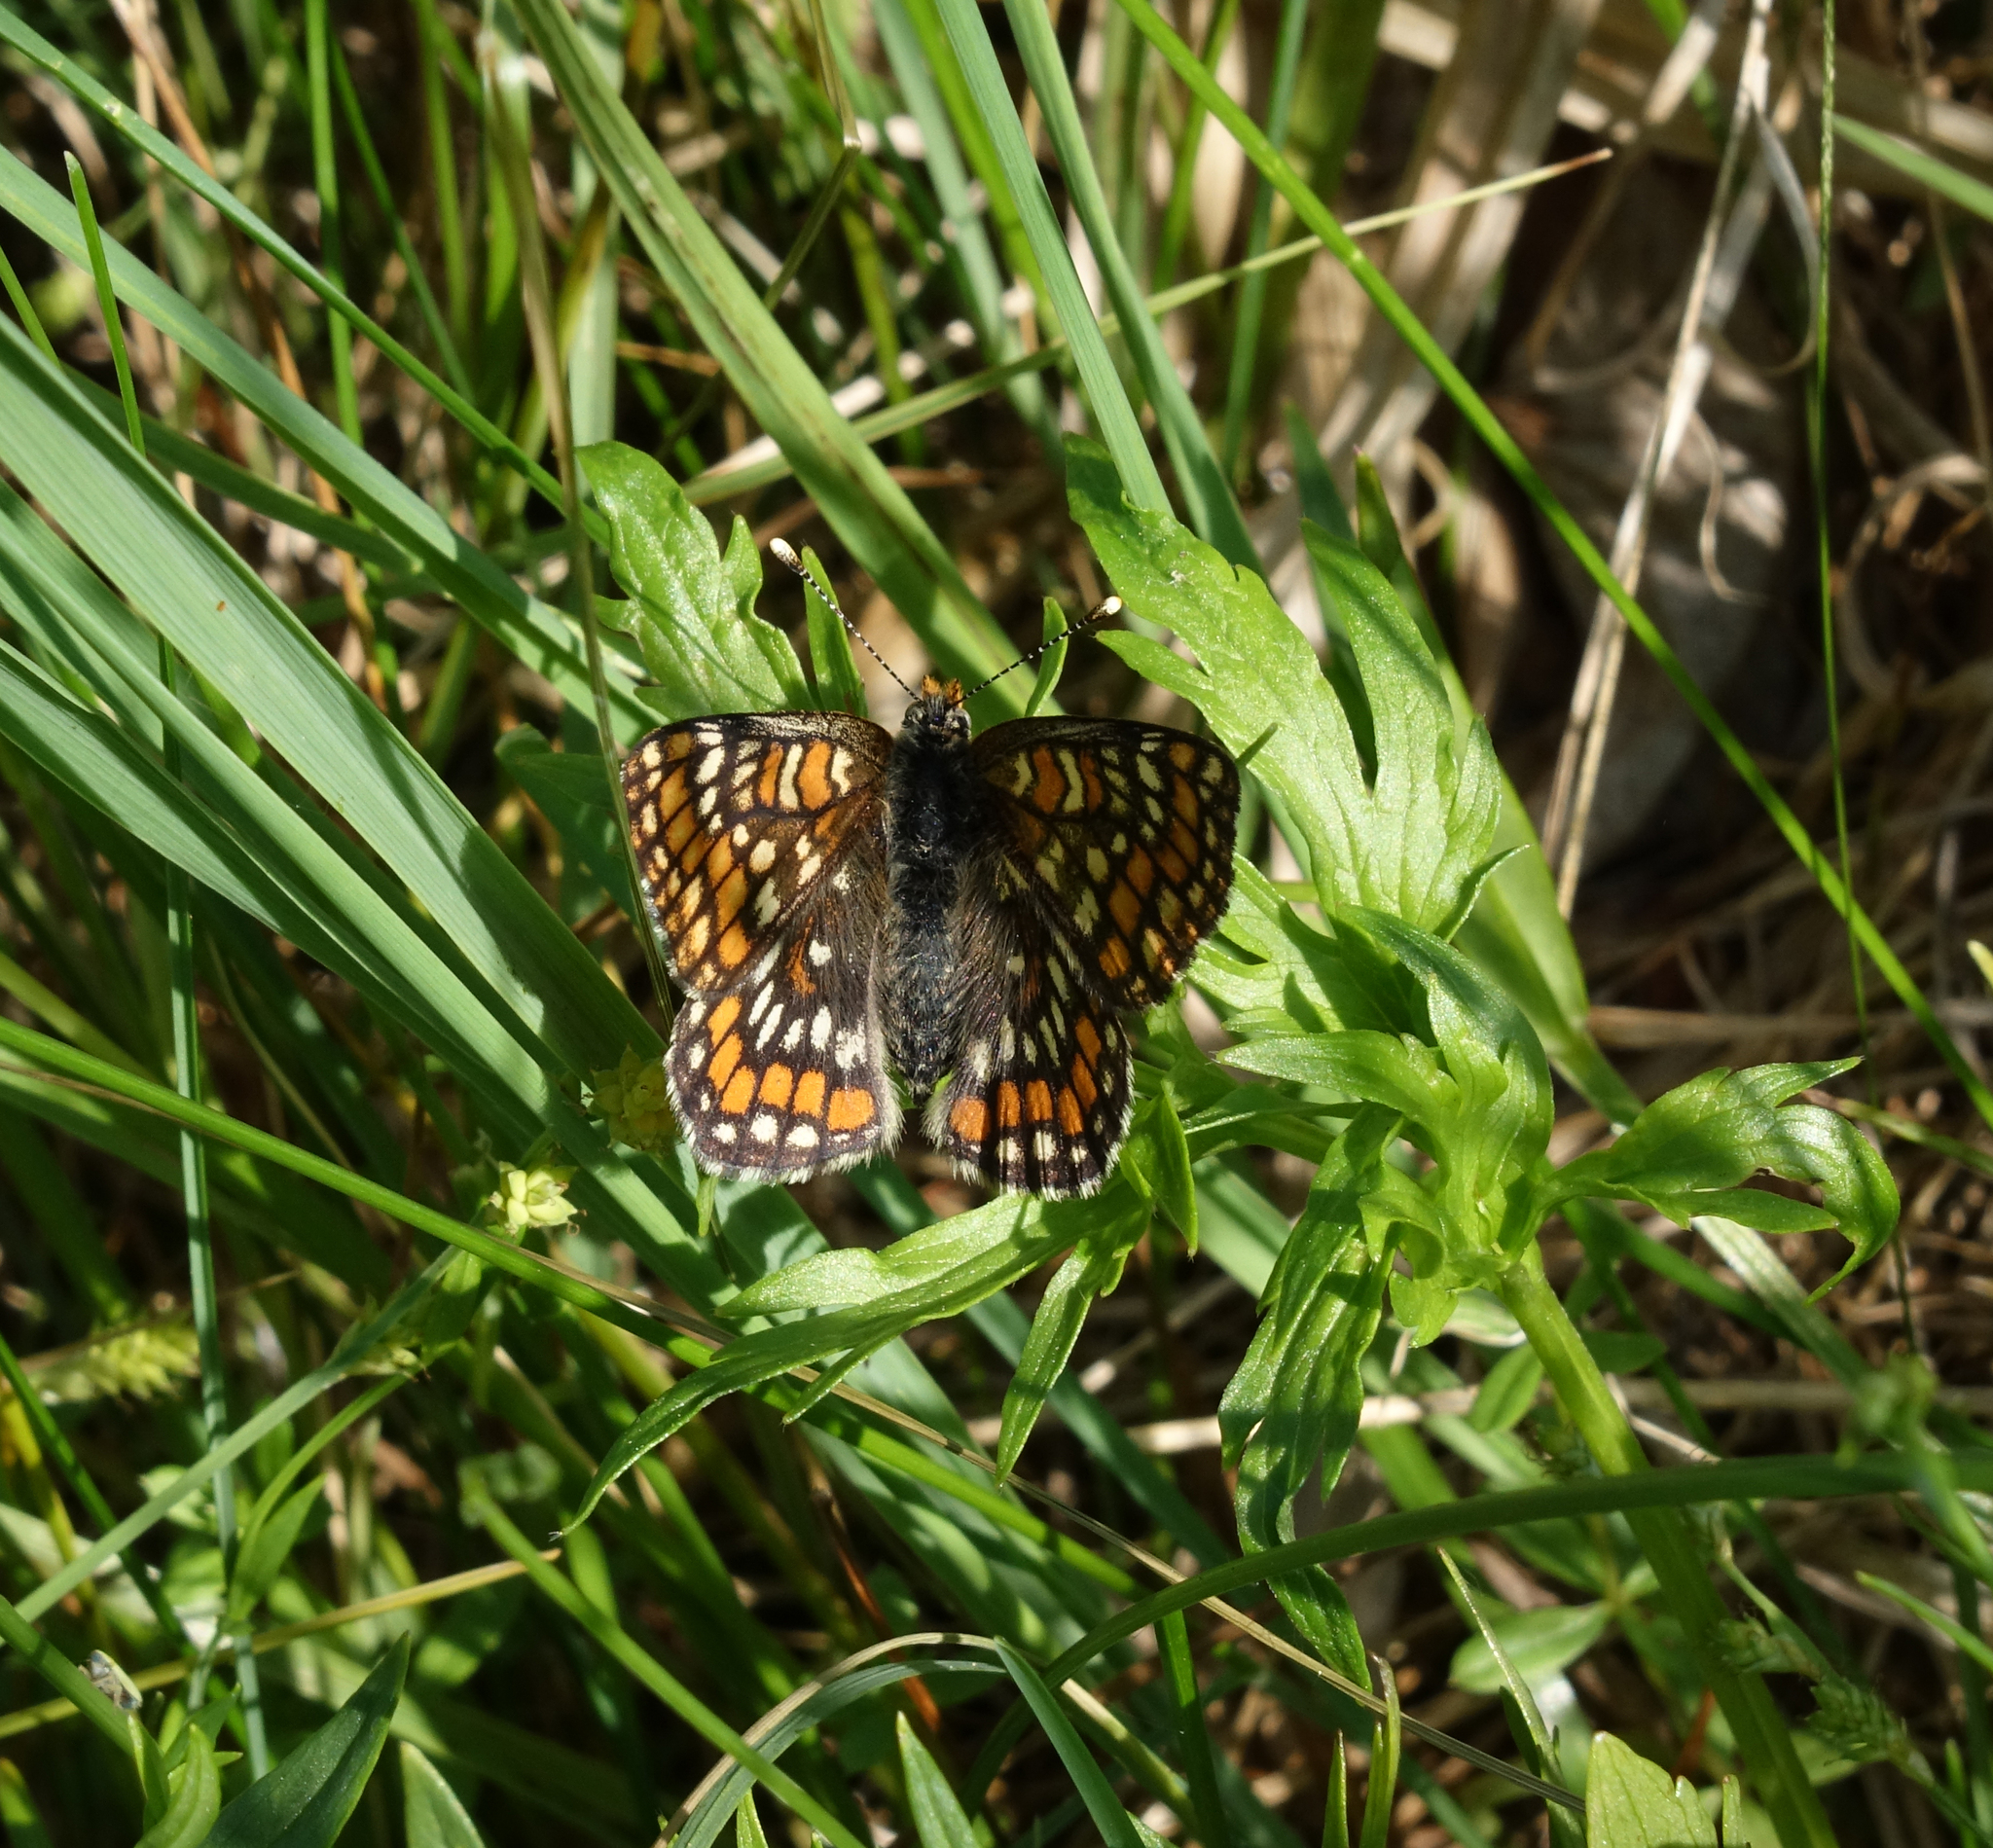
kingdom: Animalia
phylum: Arthropoda
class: Insecta
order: Lepidoptera
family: Nymphalidae
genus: Euphydryas
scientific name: Euphydryas maturna
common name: Scarce fritillary
